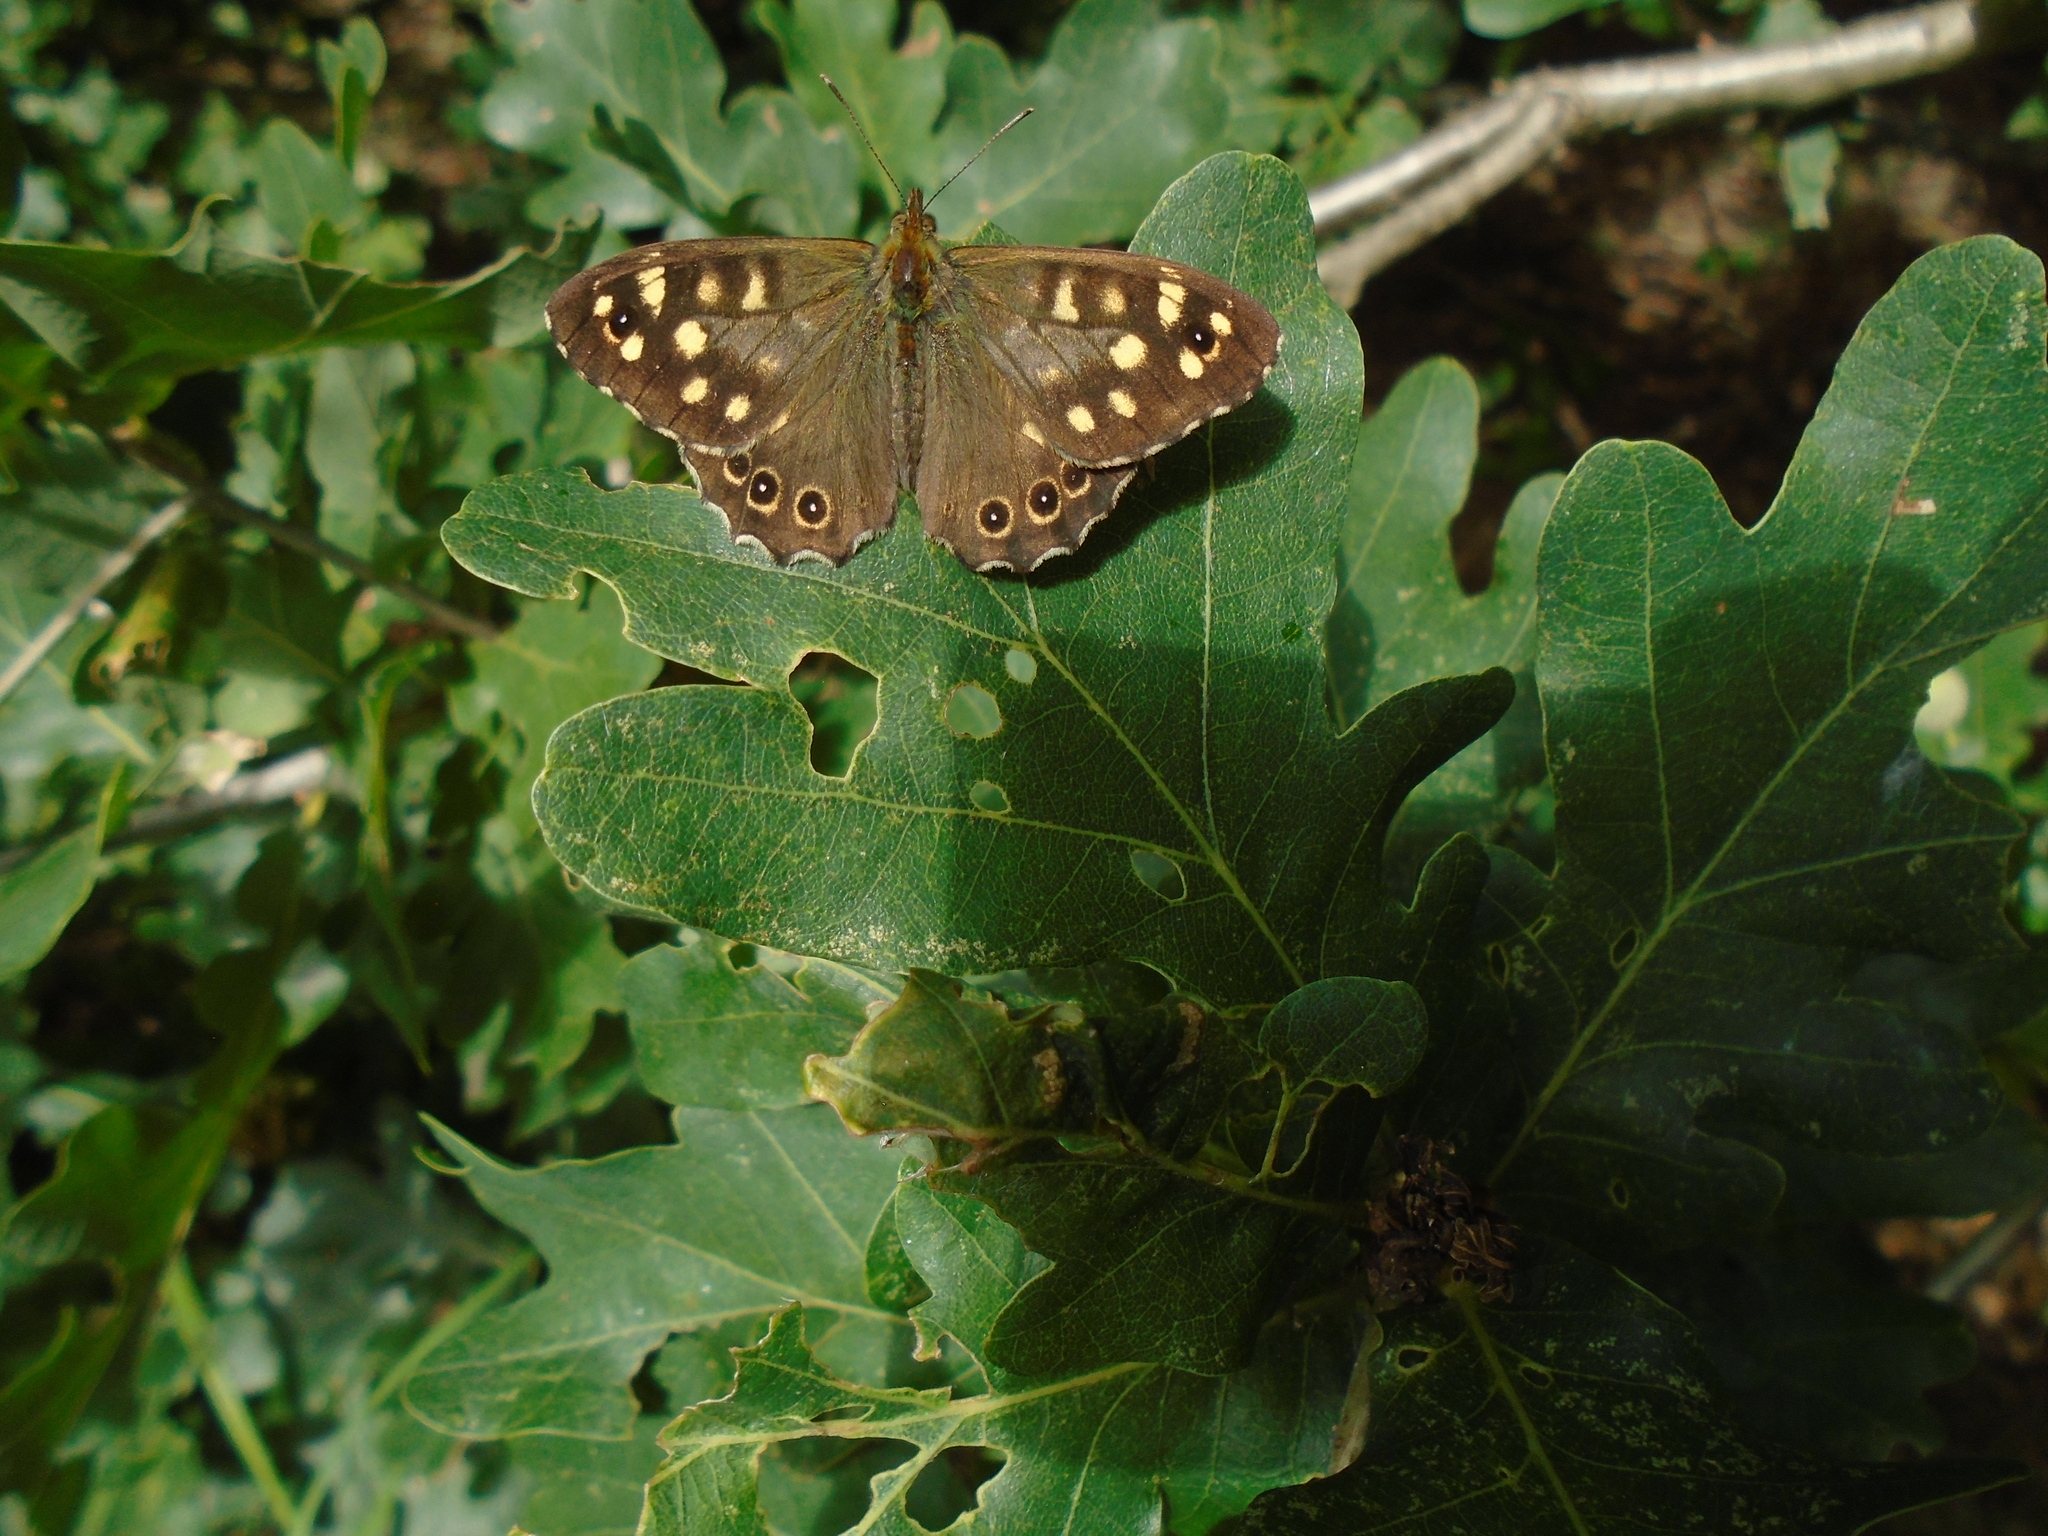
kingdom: Animalia
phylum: Arthropoda
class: Insecta
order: Lepidoptera
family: Nymphalidae
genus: Pararge
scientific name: Pararge aegeria
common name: Speckled wood
